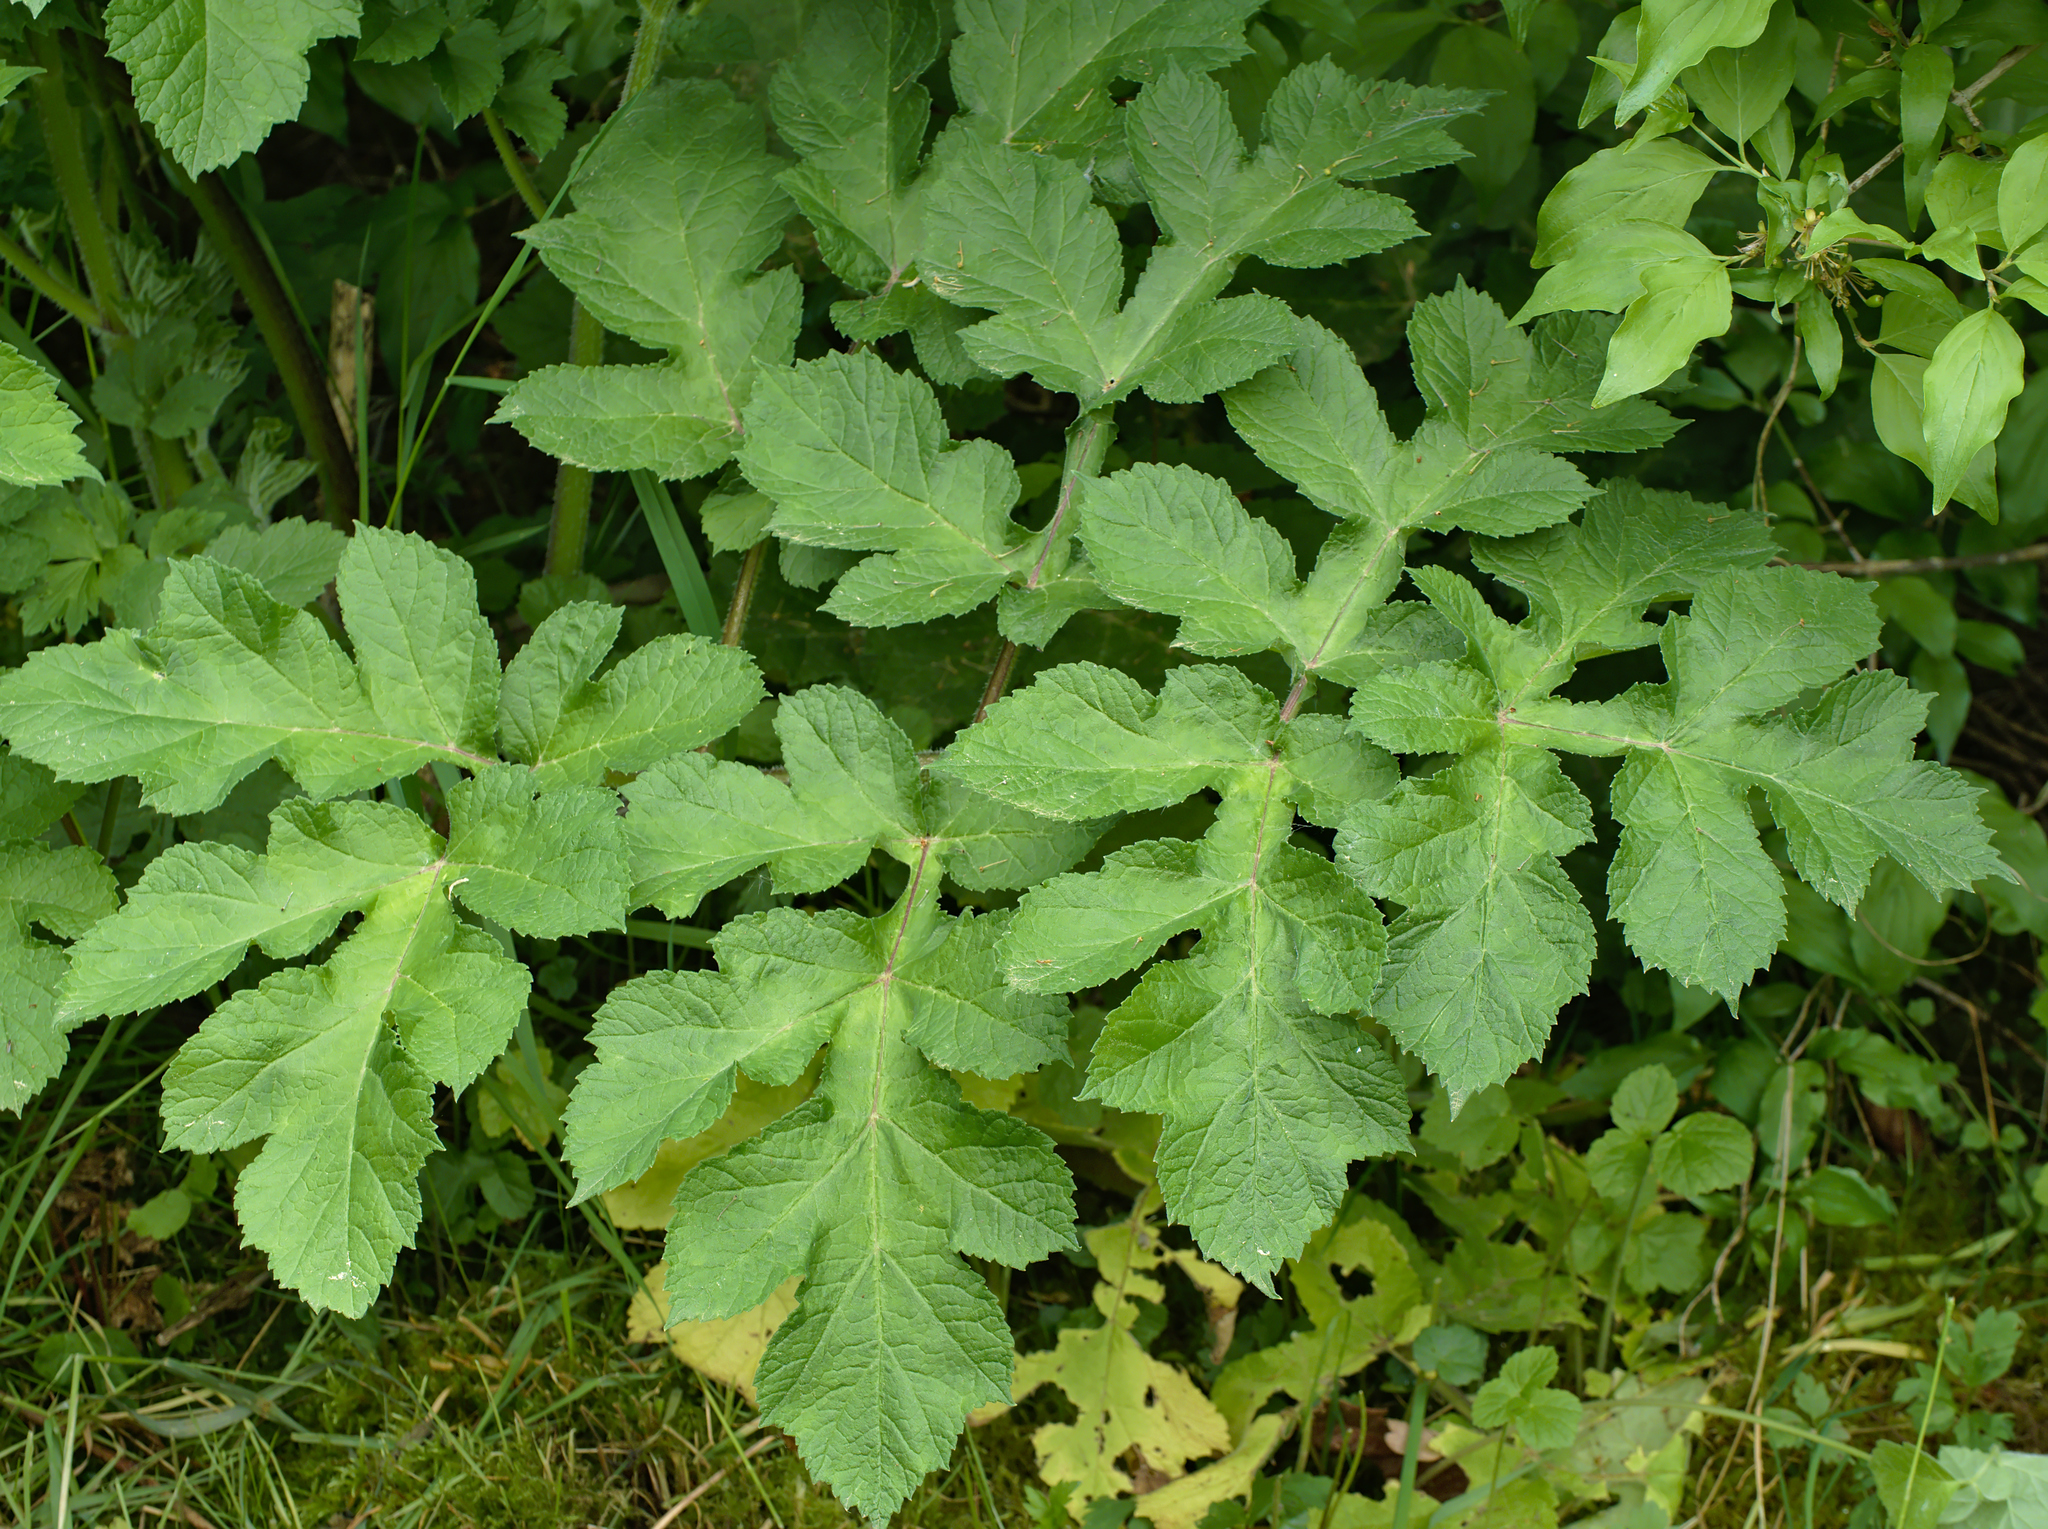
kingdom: Plantae
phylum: Tracheophyta
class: Magnoliopsida
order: Apiales
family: Apiaceae
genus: Heracleum
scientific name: Heracleum sphondylium
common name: Hogweed
